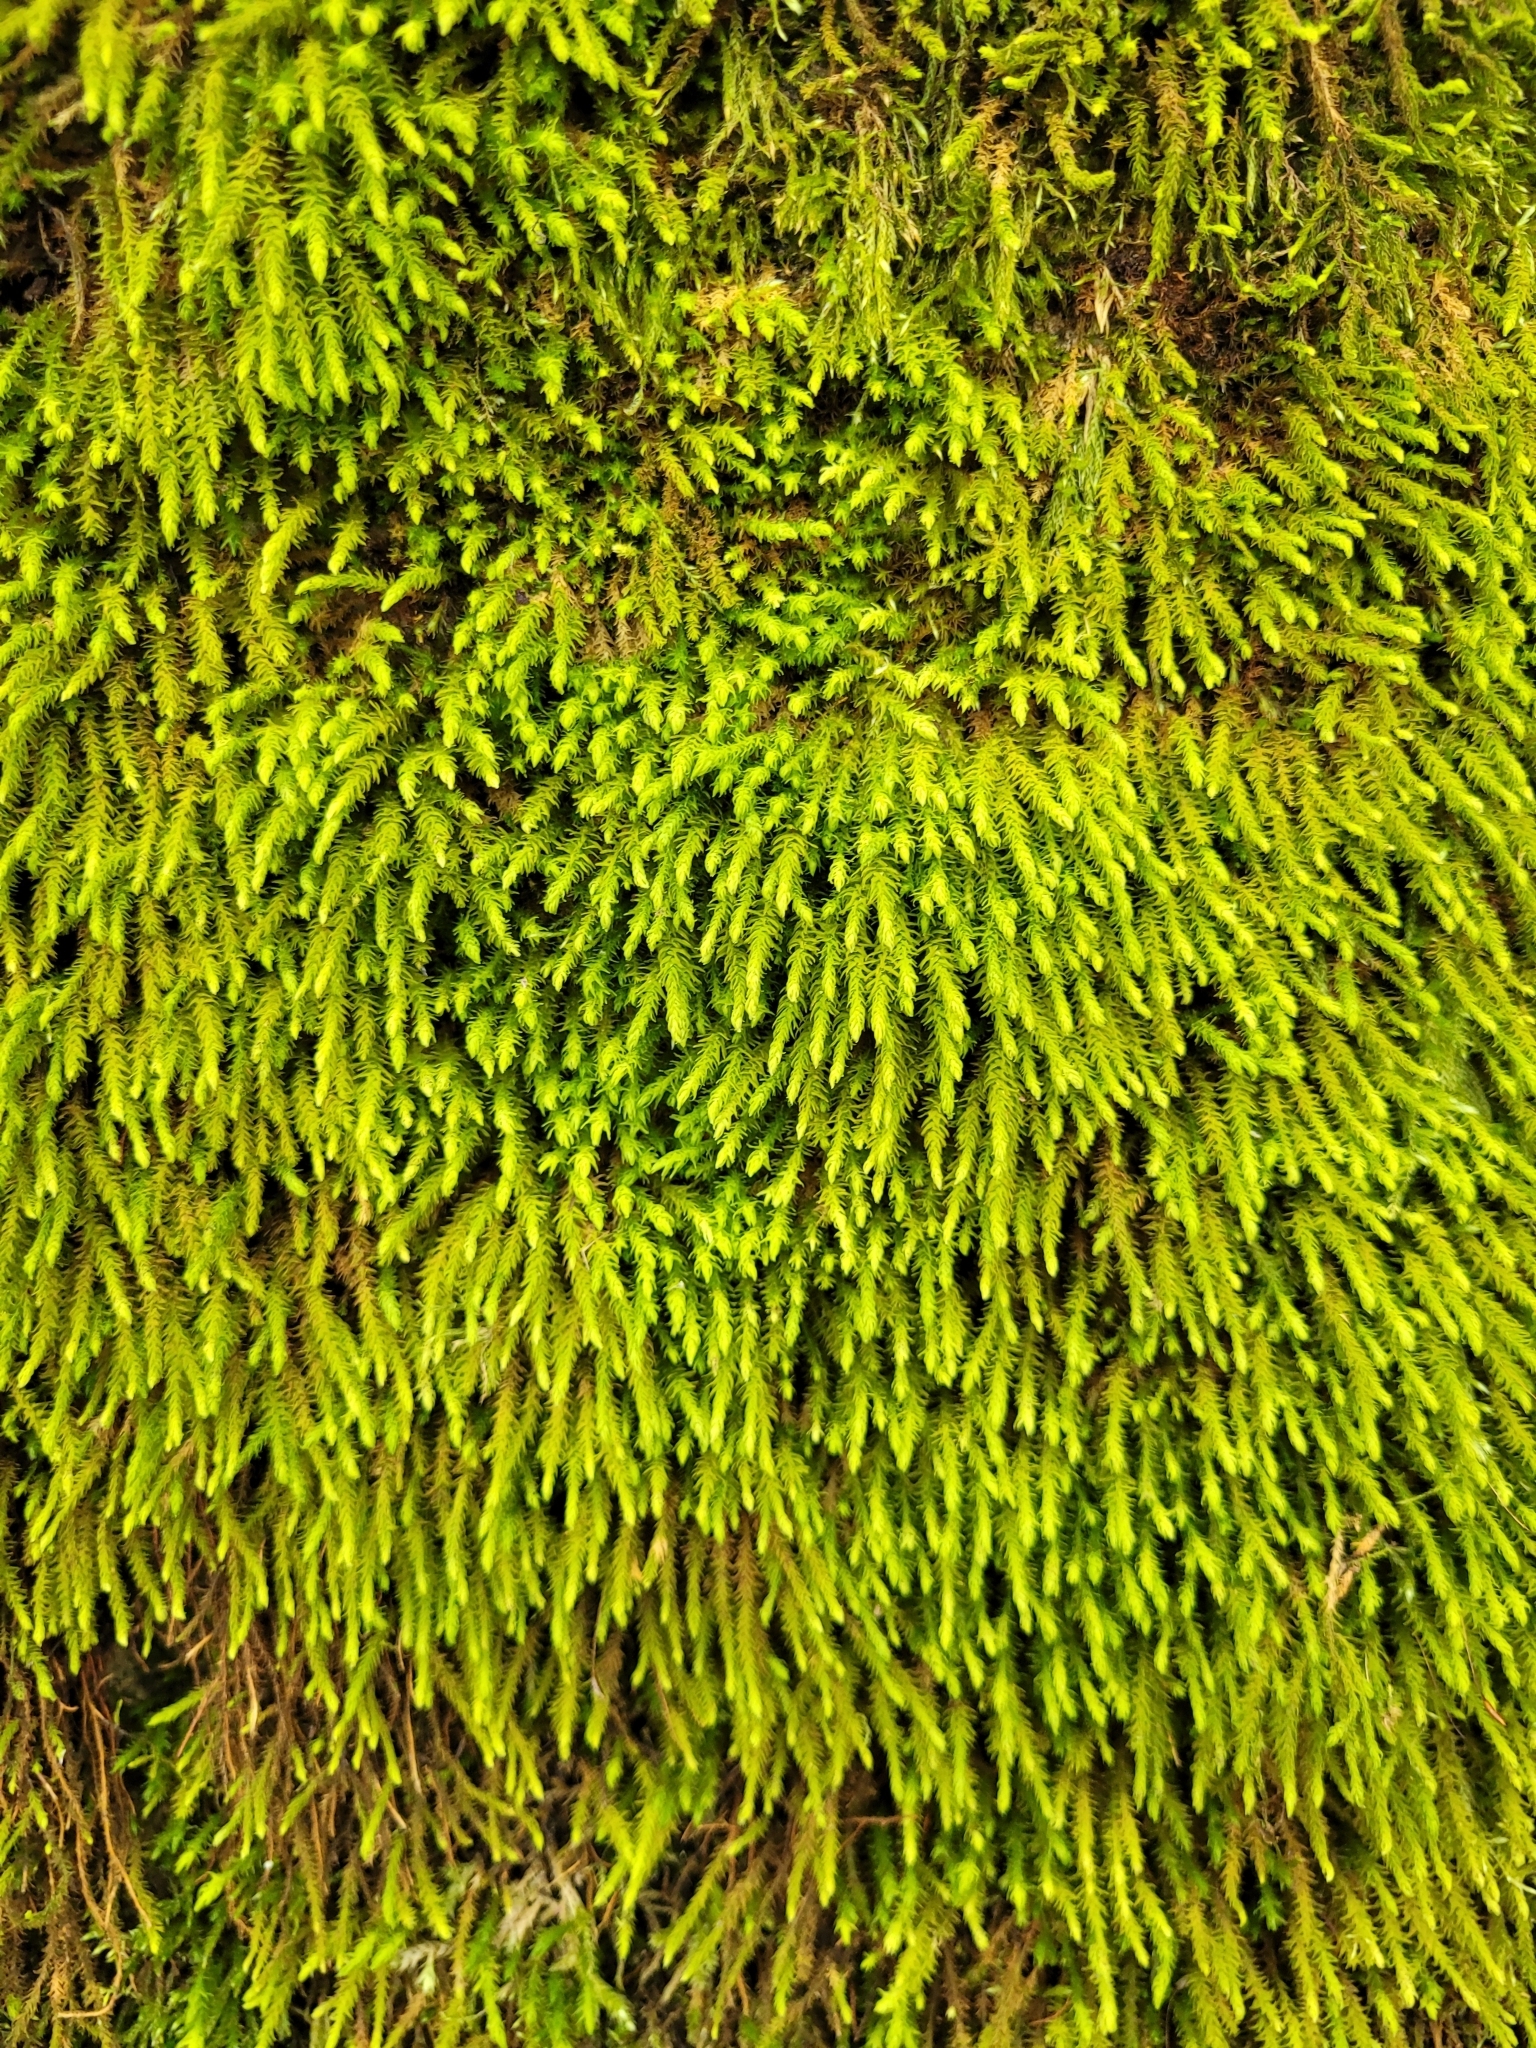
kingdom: Plantae
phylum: Bryophyta
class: Bryopsida
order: Hypnales
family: Anomodontaceae
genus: Anomodon
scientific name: Anomodon viticulosus
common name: Tall anomodon
